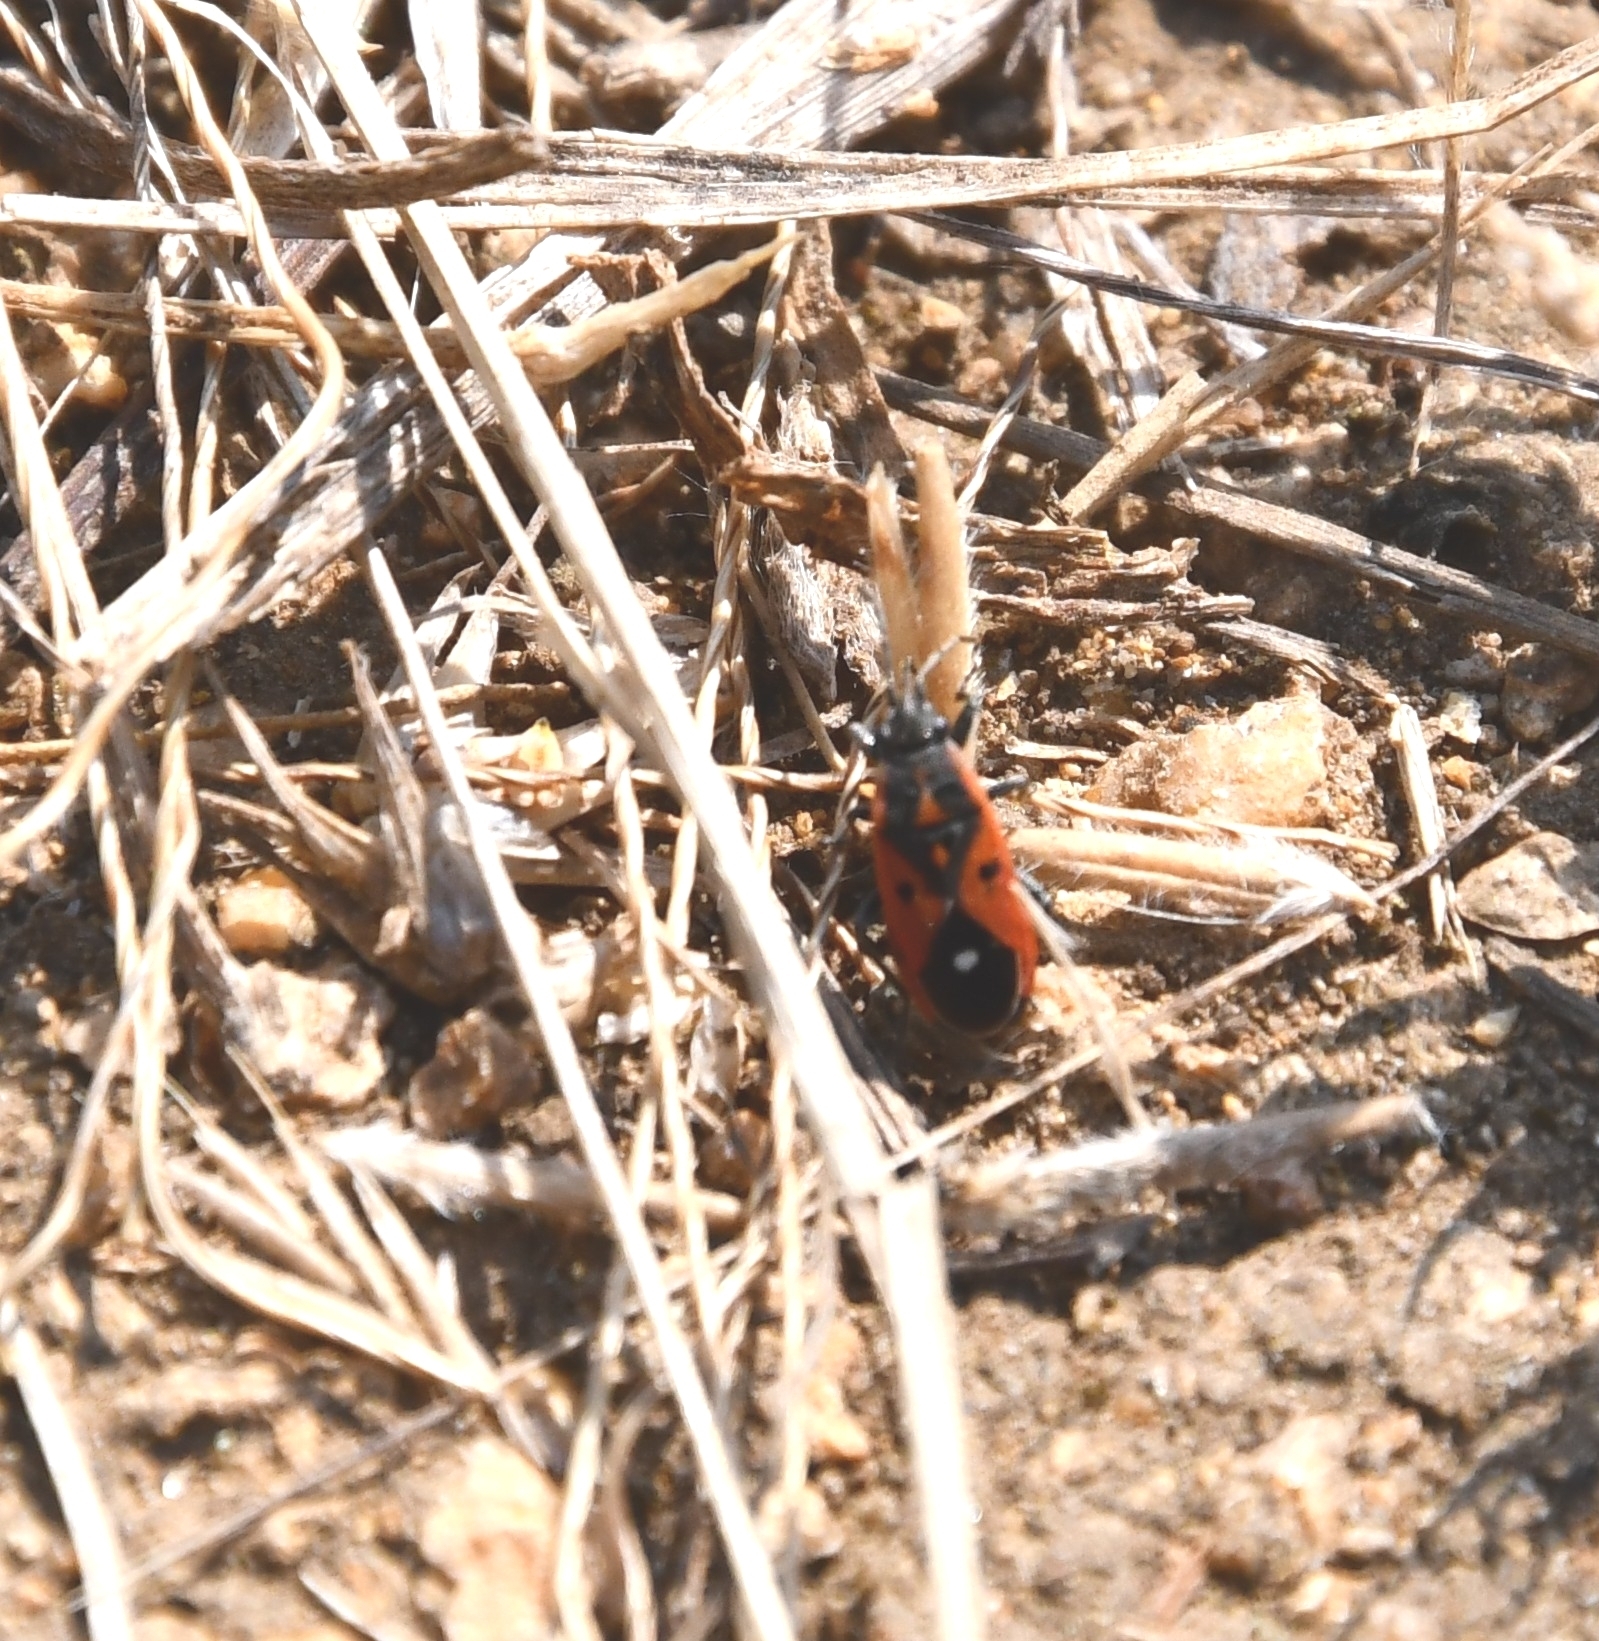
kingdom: Animalia
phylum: Arthropoda
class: Insecta
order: Hemiptera
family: Lygaeidae
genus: Melanocoryphus
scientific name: Melanocoryphus tristrami
